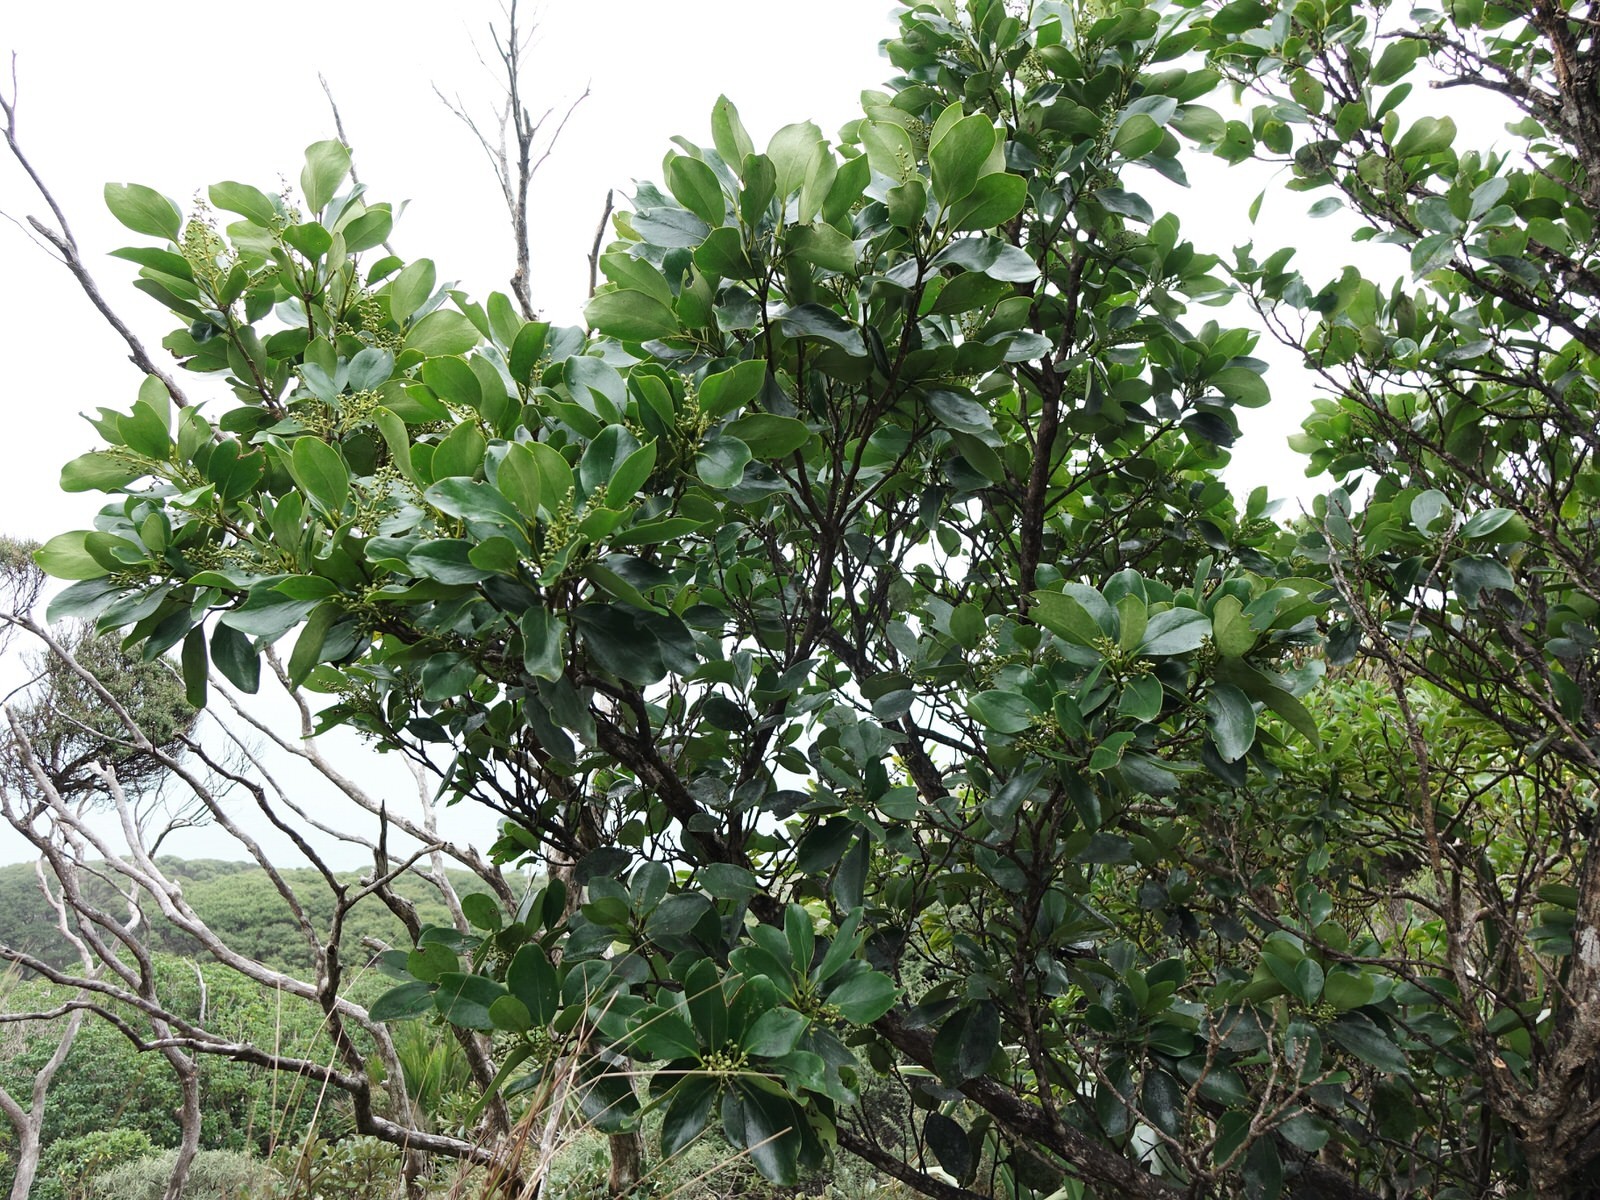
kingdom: Plantae
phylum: Tracheophyta
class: Magnoliopsida
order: Apiales
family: Griseliniaceae
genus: Griselinia
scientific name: Griselinia lucida
